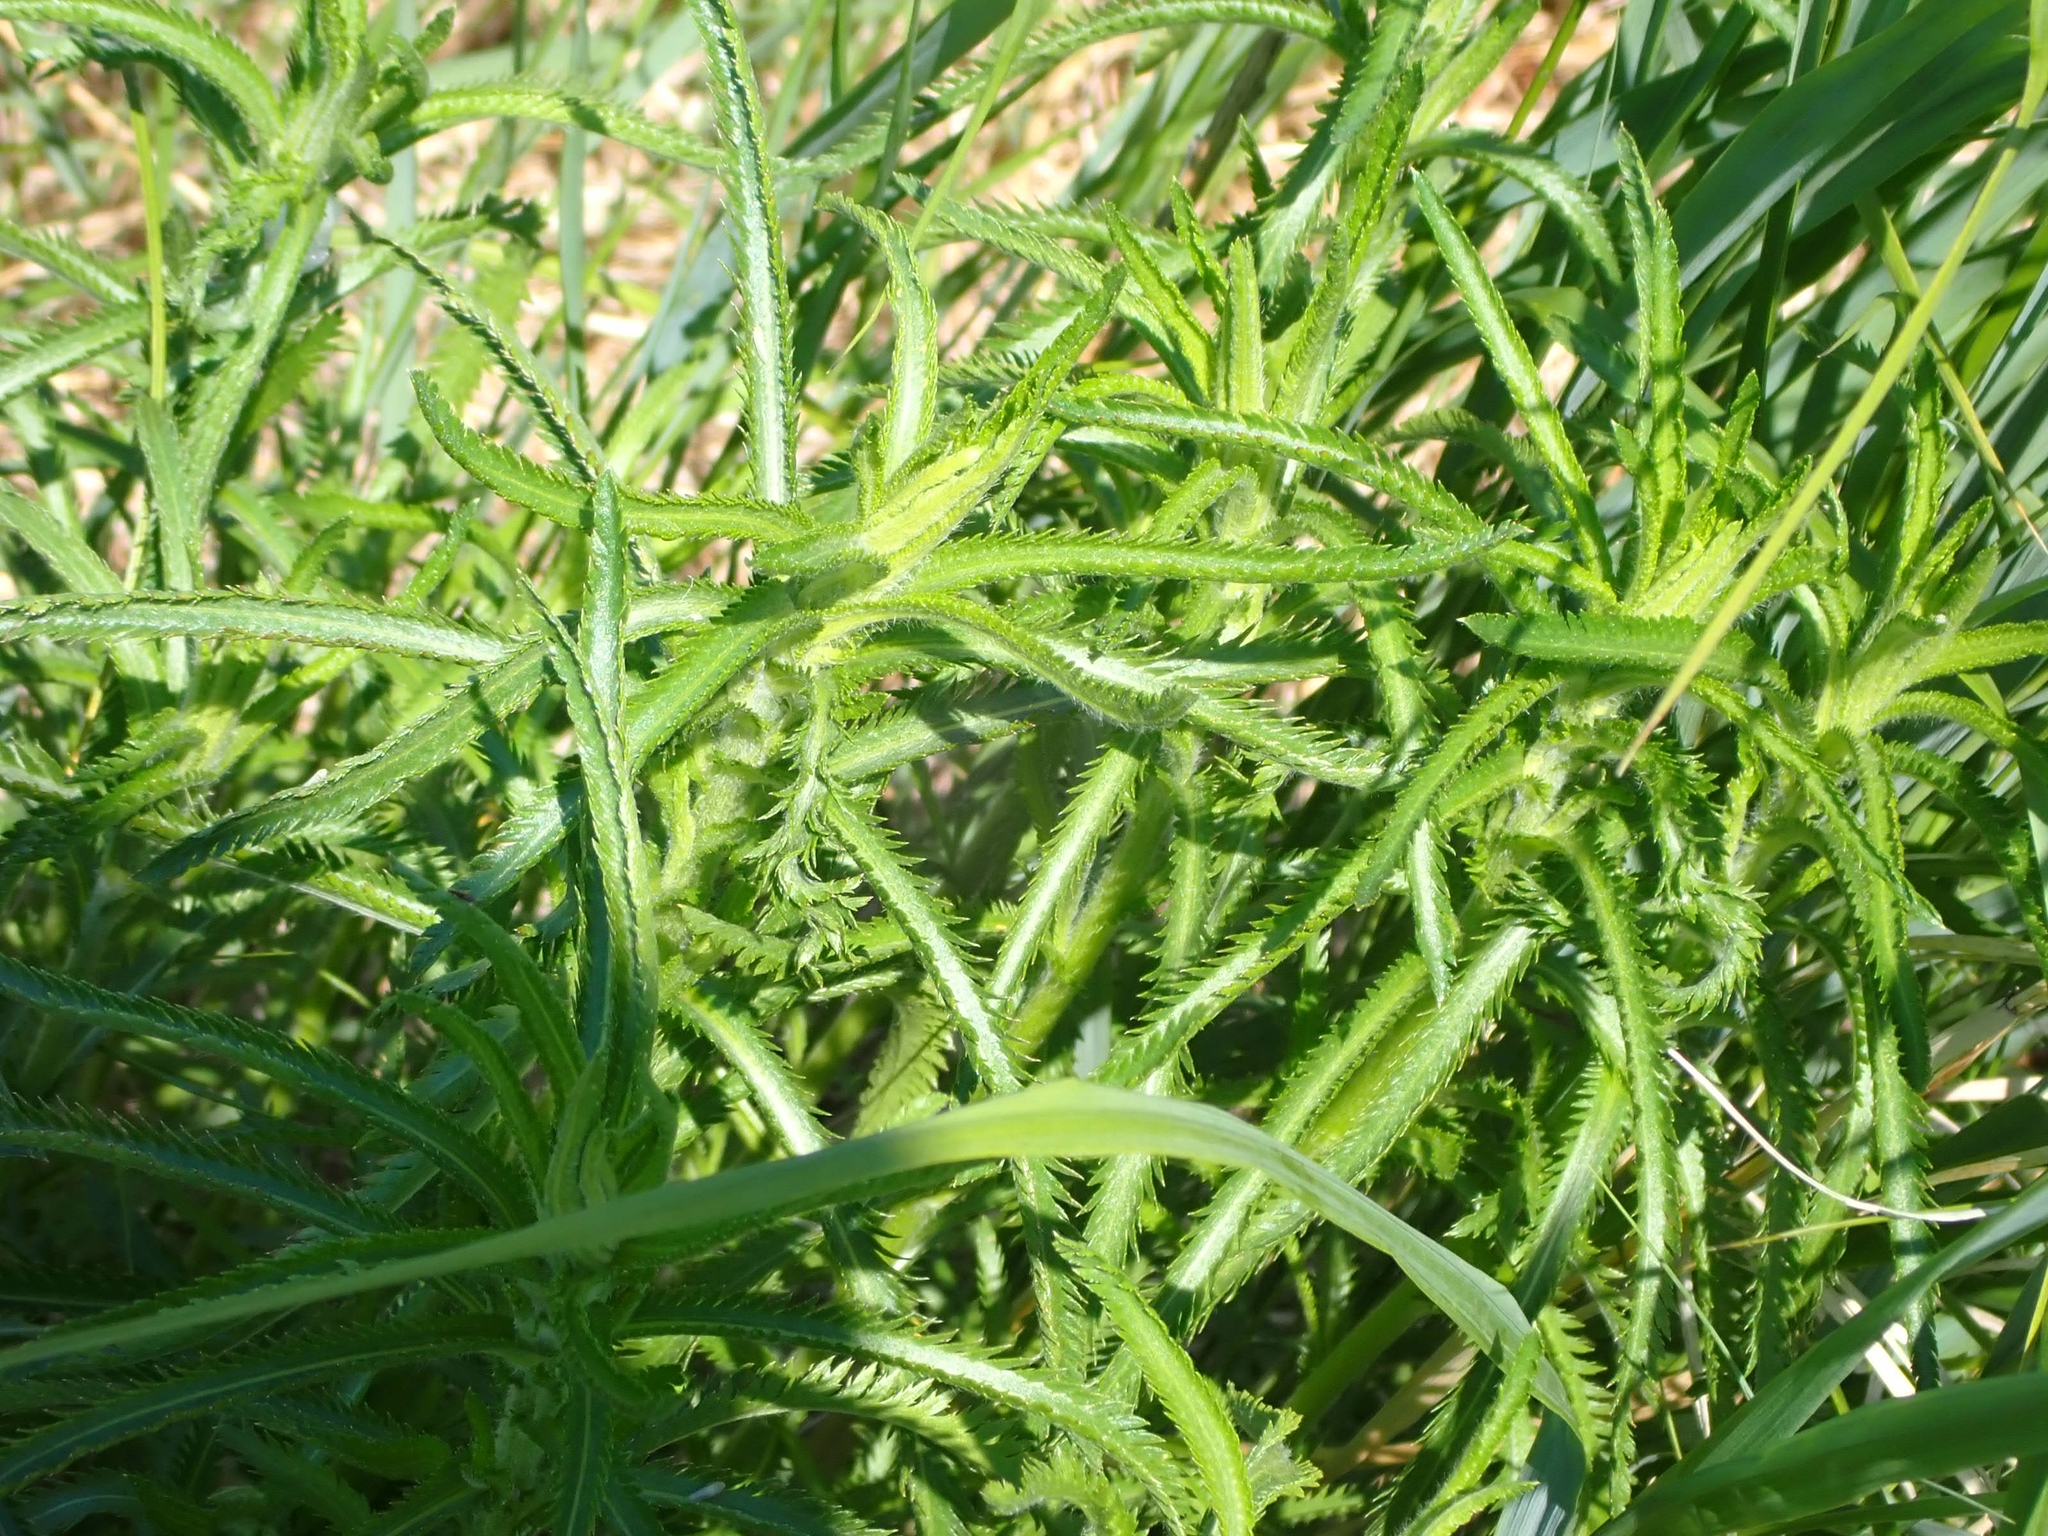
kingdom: Plantae
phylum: Tracheophyta
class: Magnoliopsida
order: Asterales
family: Asteraceae
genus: Achillea
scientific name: Achillea alpina
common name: Siberian yarrow
